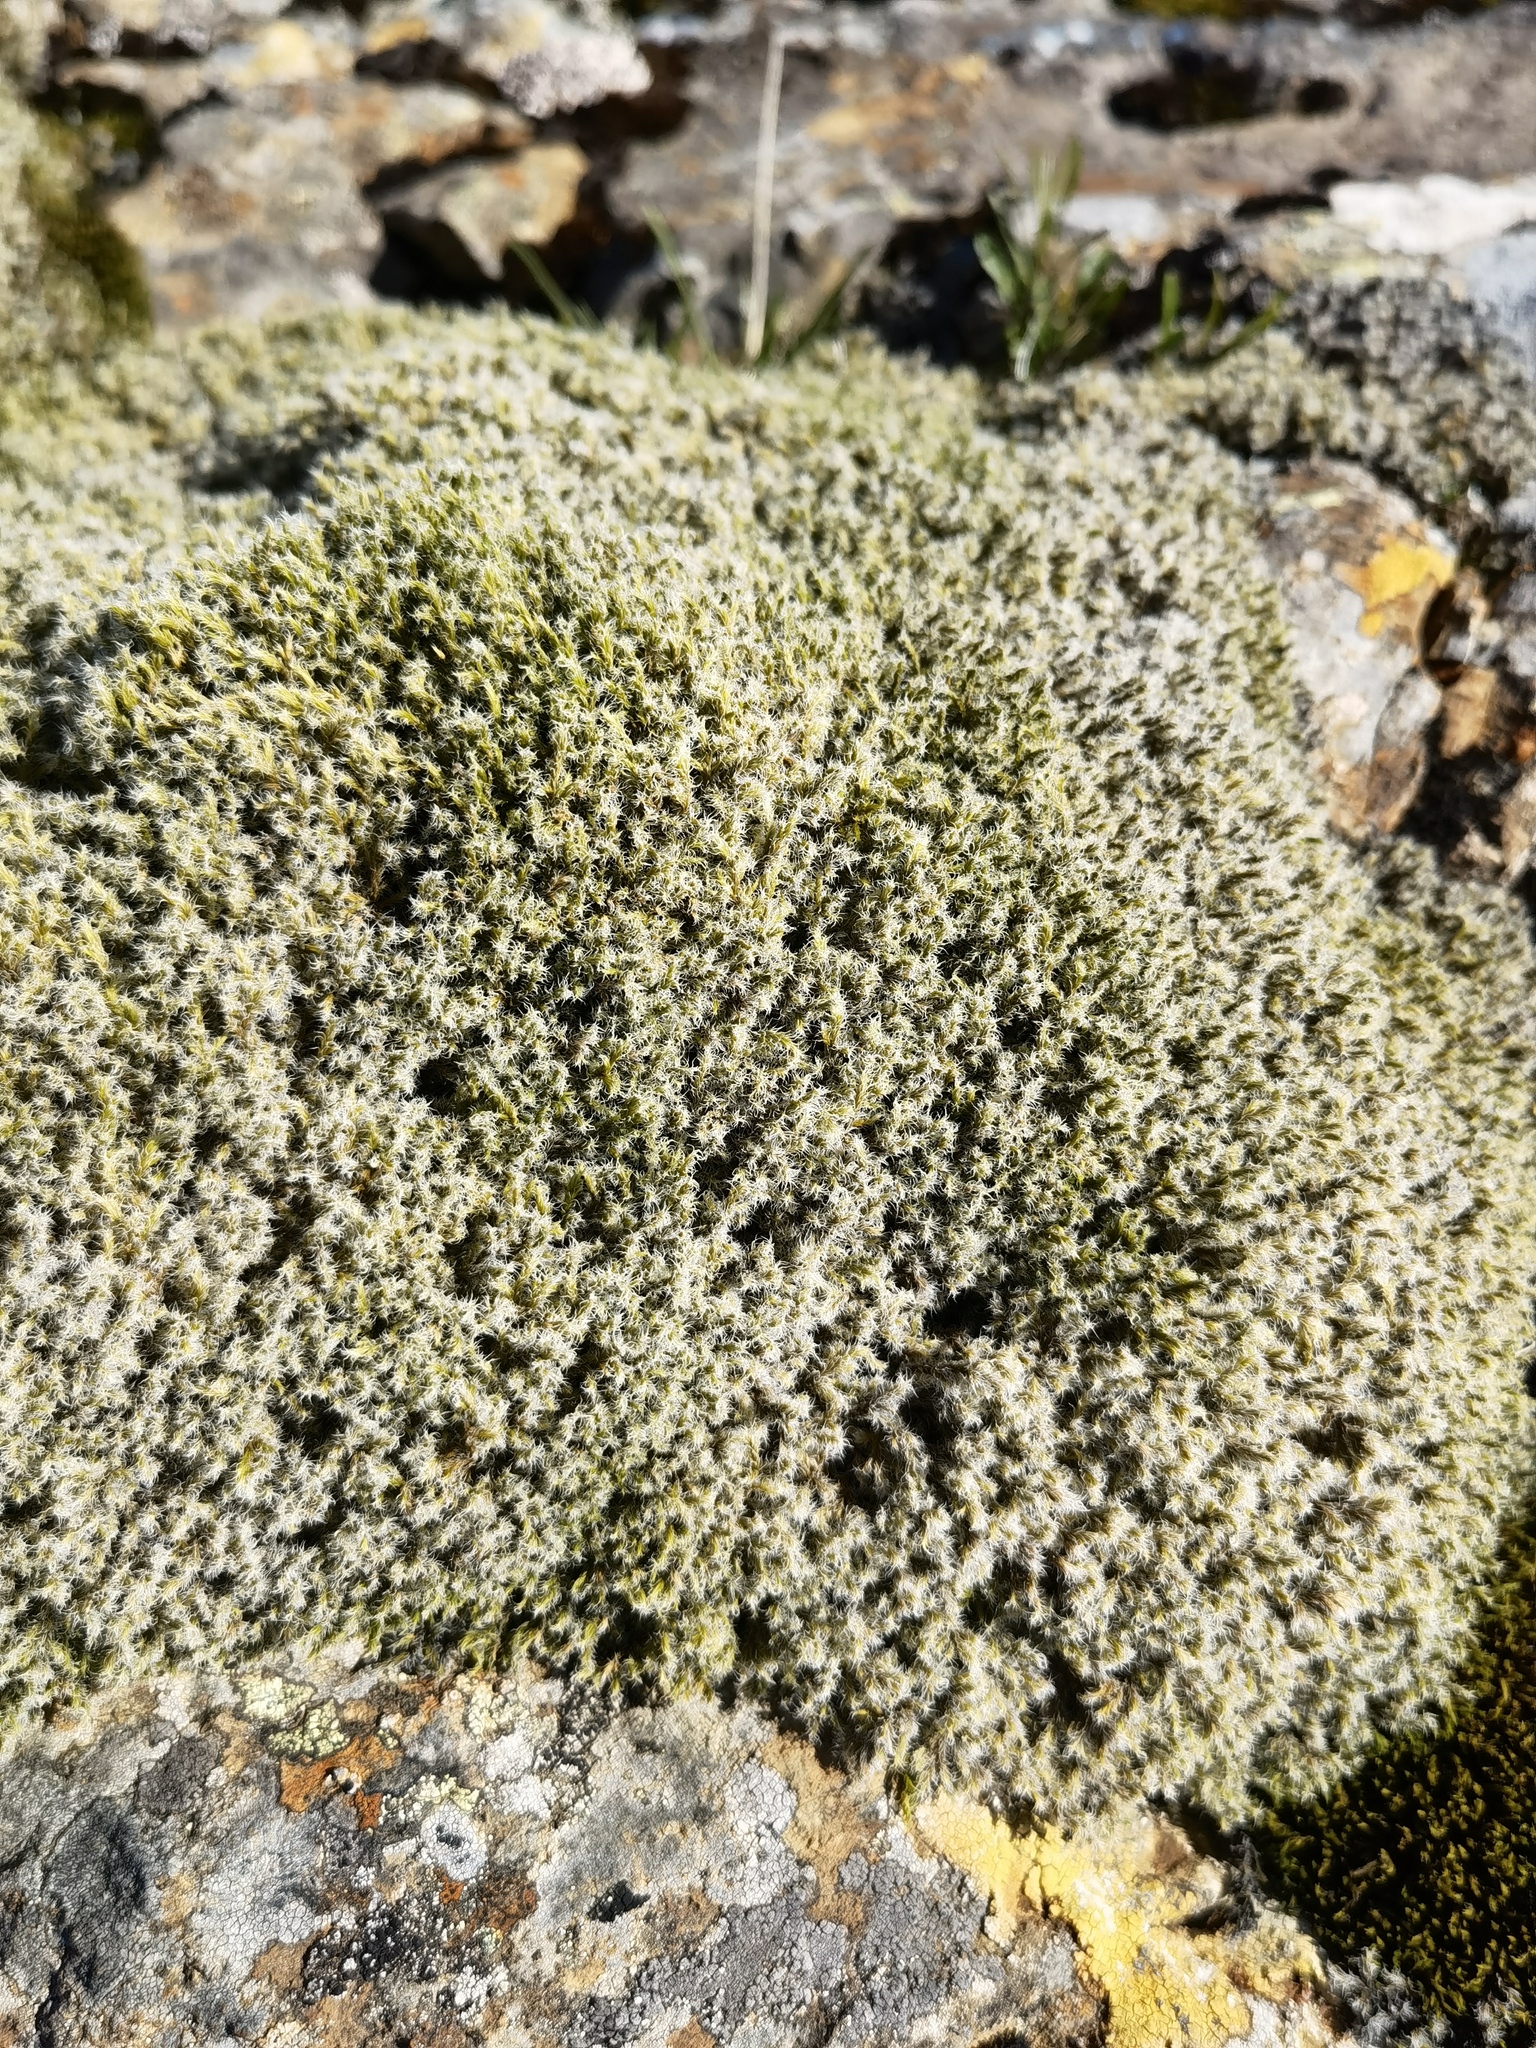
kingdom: Plantae
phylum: Bryophyta
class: Bryopsida
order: Grimmiales
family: Grimmiaceae
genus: Racomitrium
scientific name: Racomitrium lanuginosum
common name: Hoary rock moss
